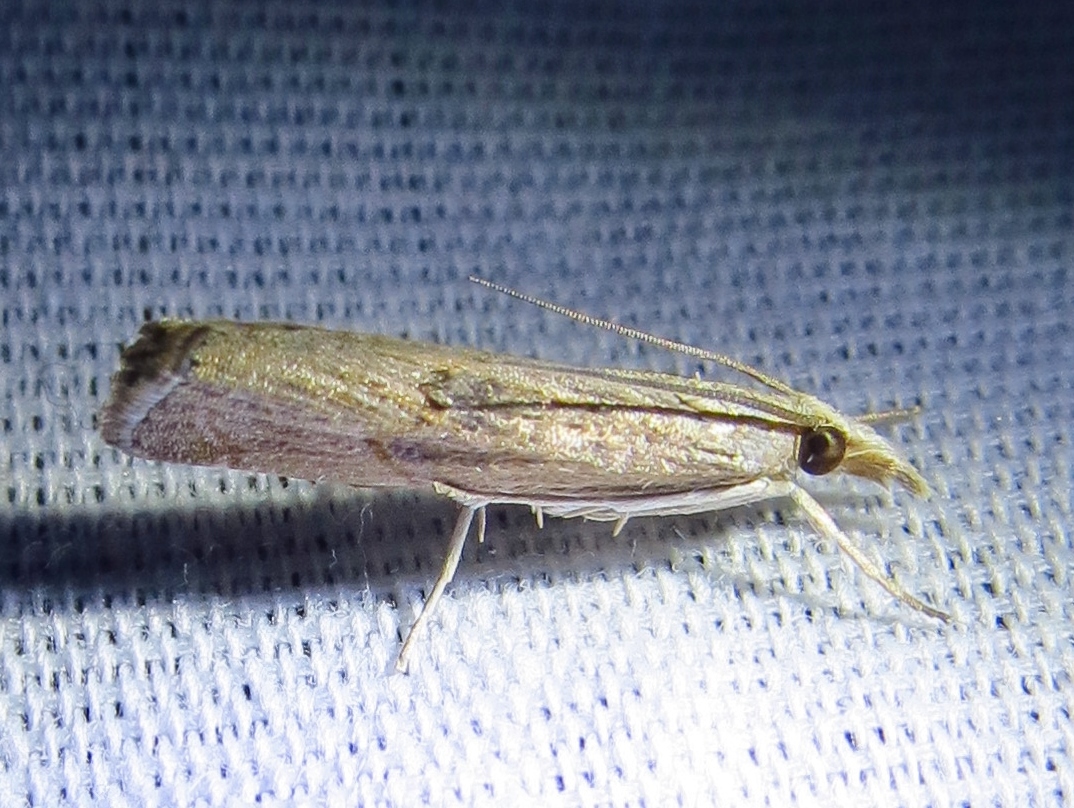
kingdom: Animalia
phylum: Arthropoda
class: Insecta
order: Lepidoptera
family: Crambidae
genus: Parapediasia
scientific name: Parapediasia decorellus
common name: Graceful grass-veneer
